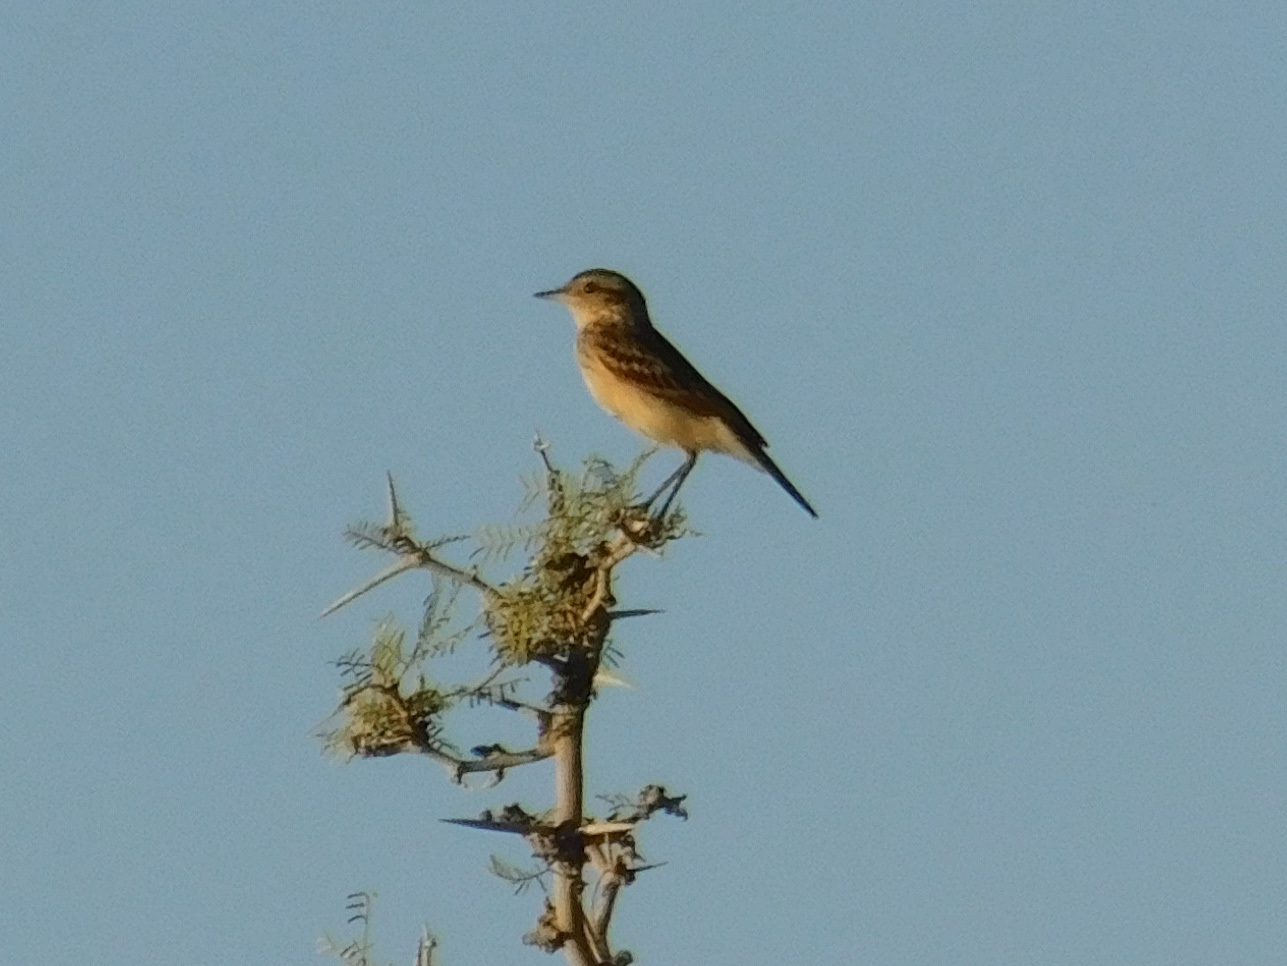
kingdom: Animalia
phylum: Chordata
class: Aves
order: Passeriformes
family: Tyrannidae
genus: Hymenops
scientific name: Hymenops perspicillatus
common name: Spectacled tyrant
